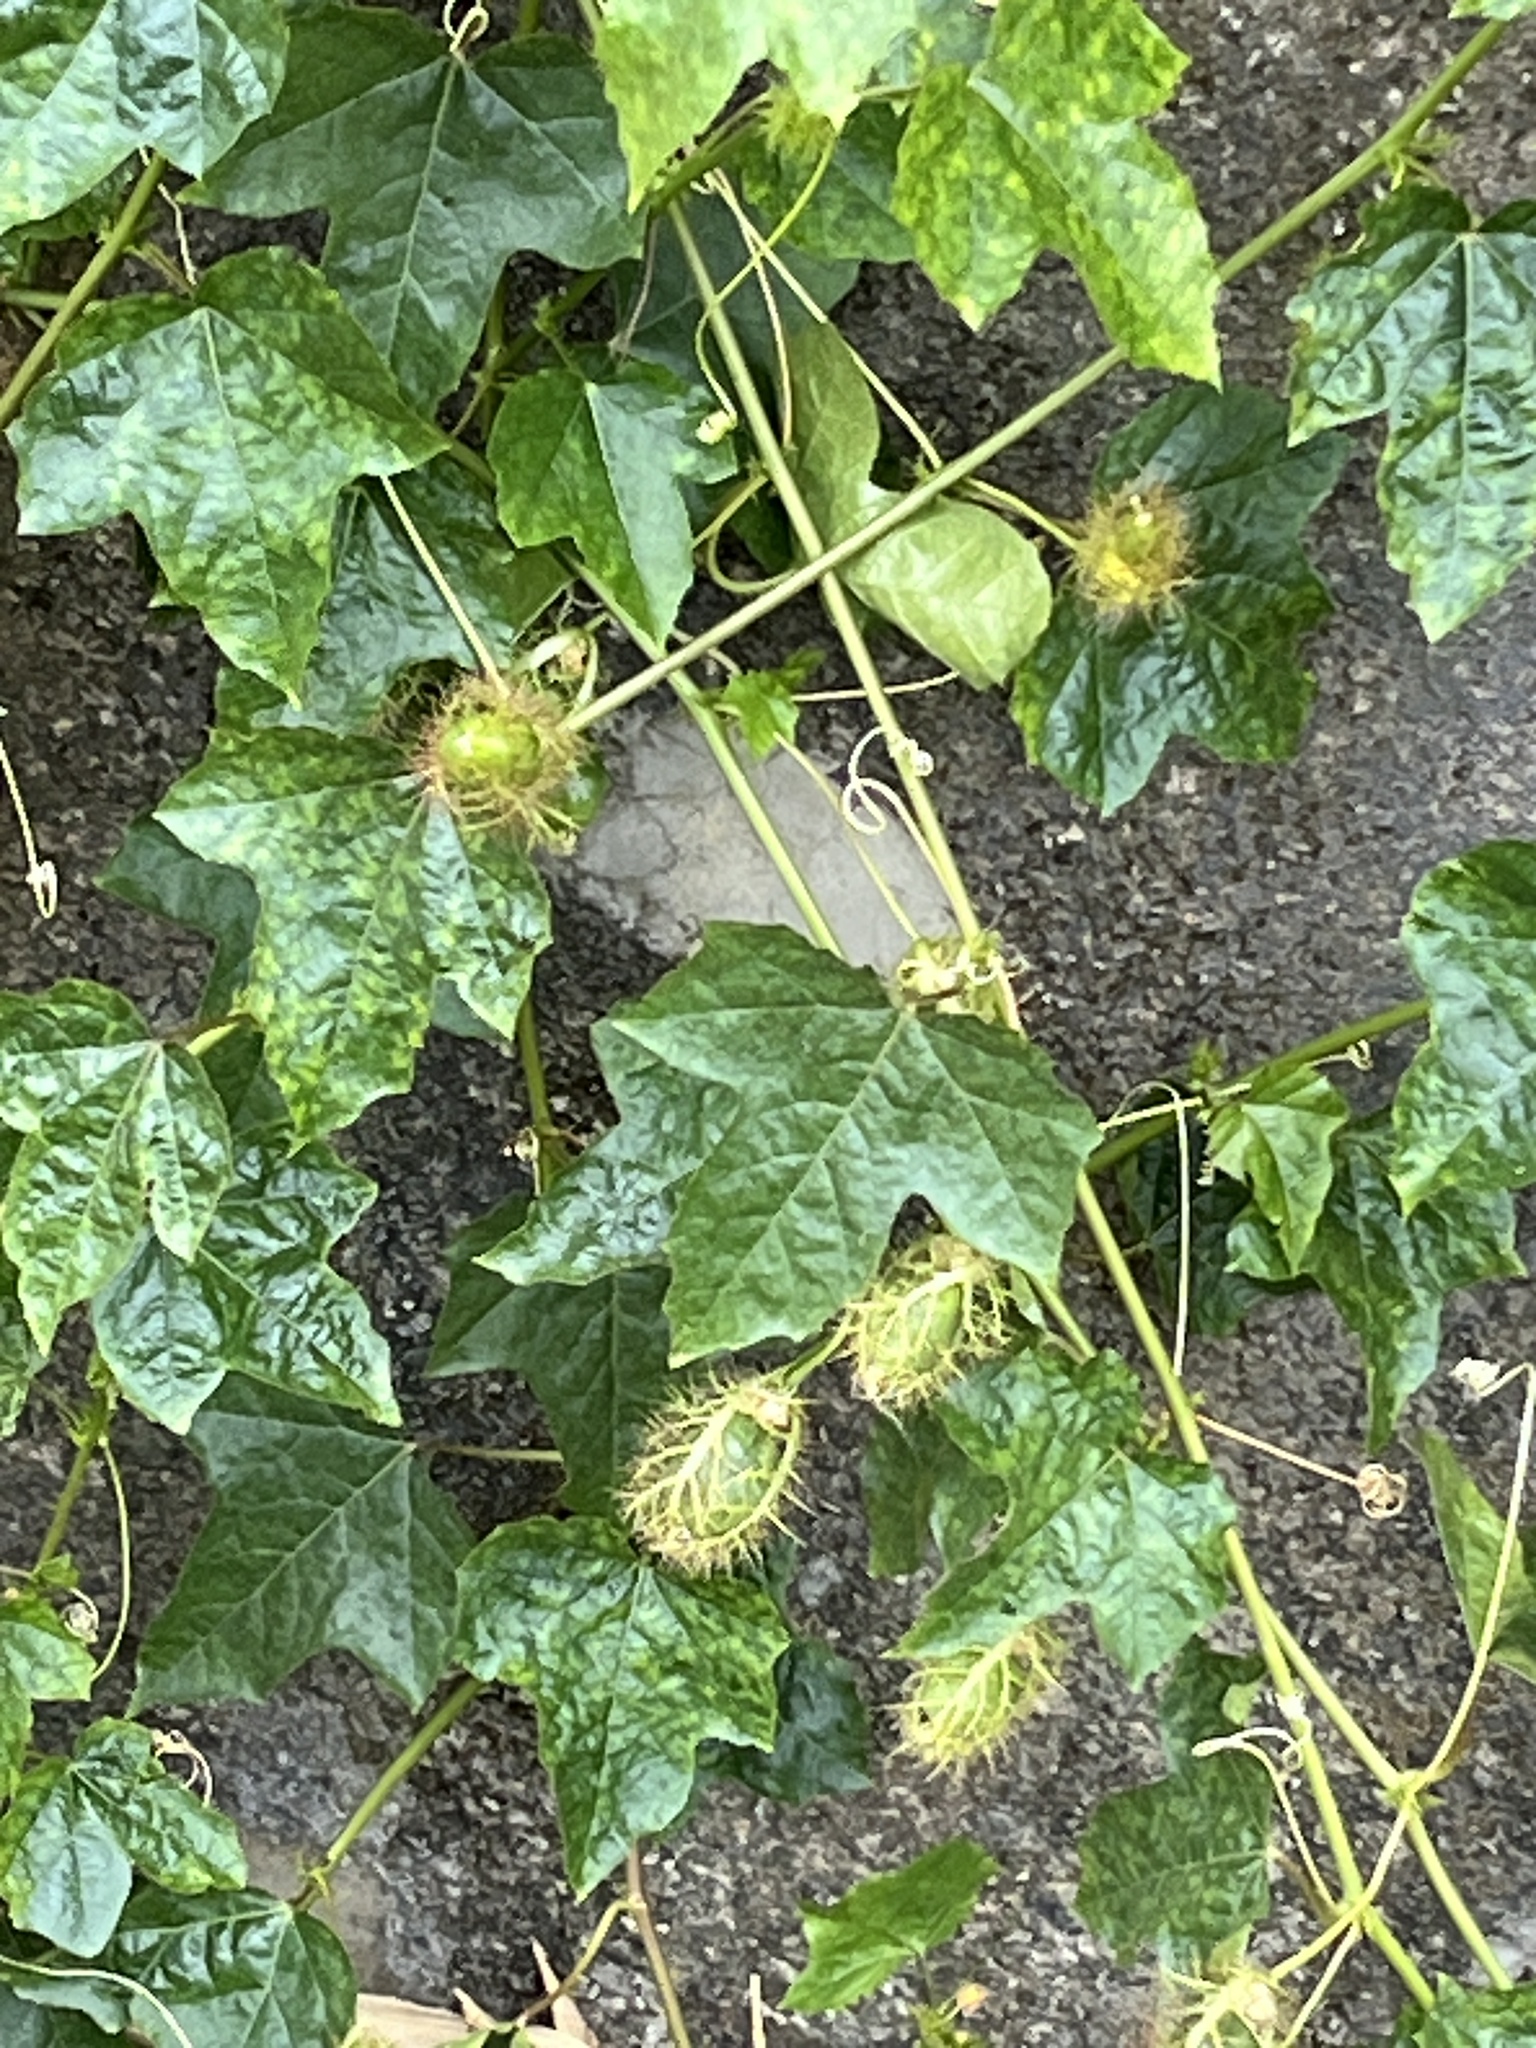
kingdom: Plantae
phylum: Tracheophyta
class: Magnoliopsida
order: Malpighiales
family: Passifloraceae
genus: Passiflora
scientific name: Passiflora vesicaria
